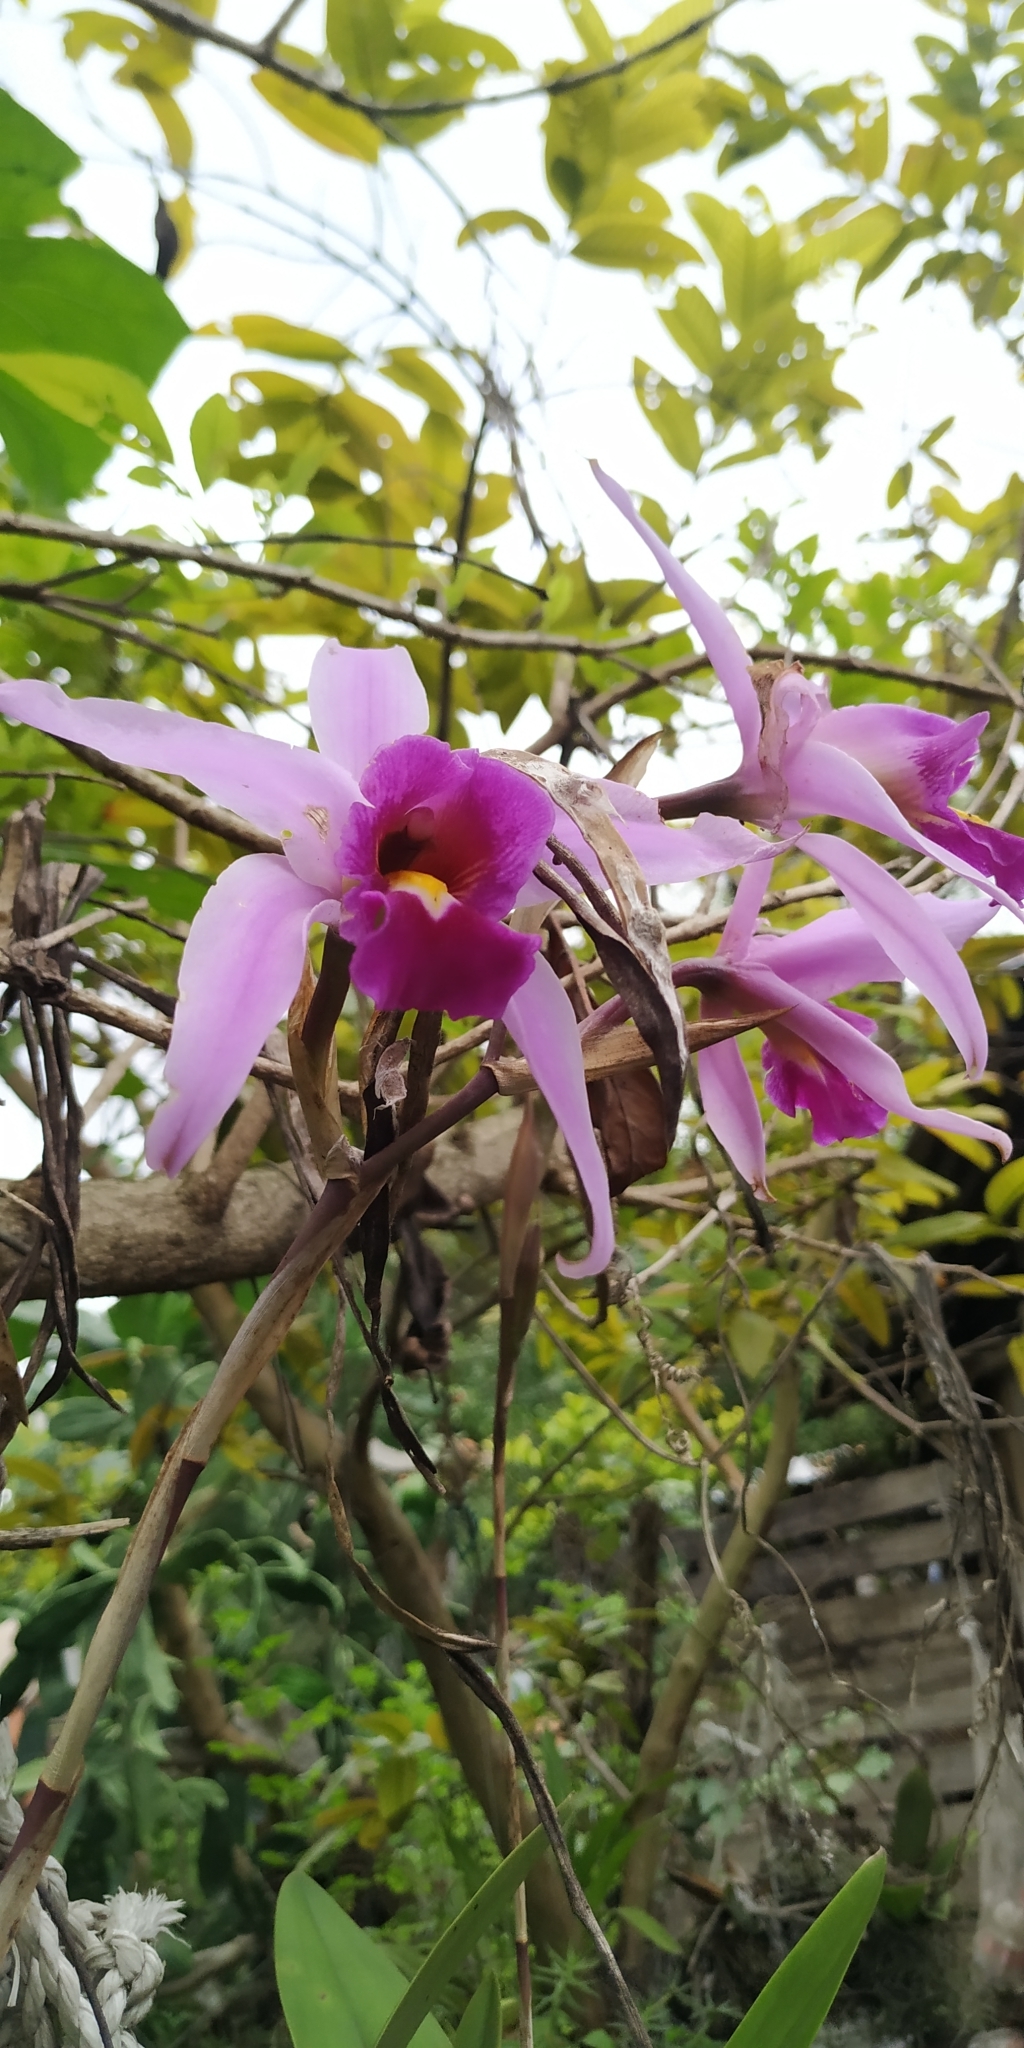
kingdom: Plantae
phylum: Tracheophyta
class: Liliopsida
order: Asparagales
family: Orchidaceae
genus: Laelia
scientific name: Laelia anceps
